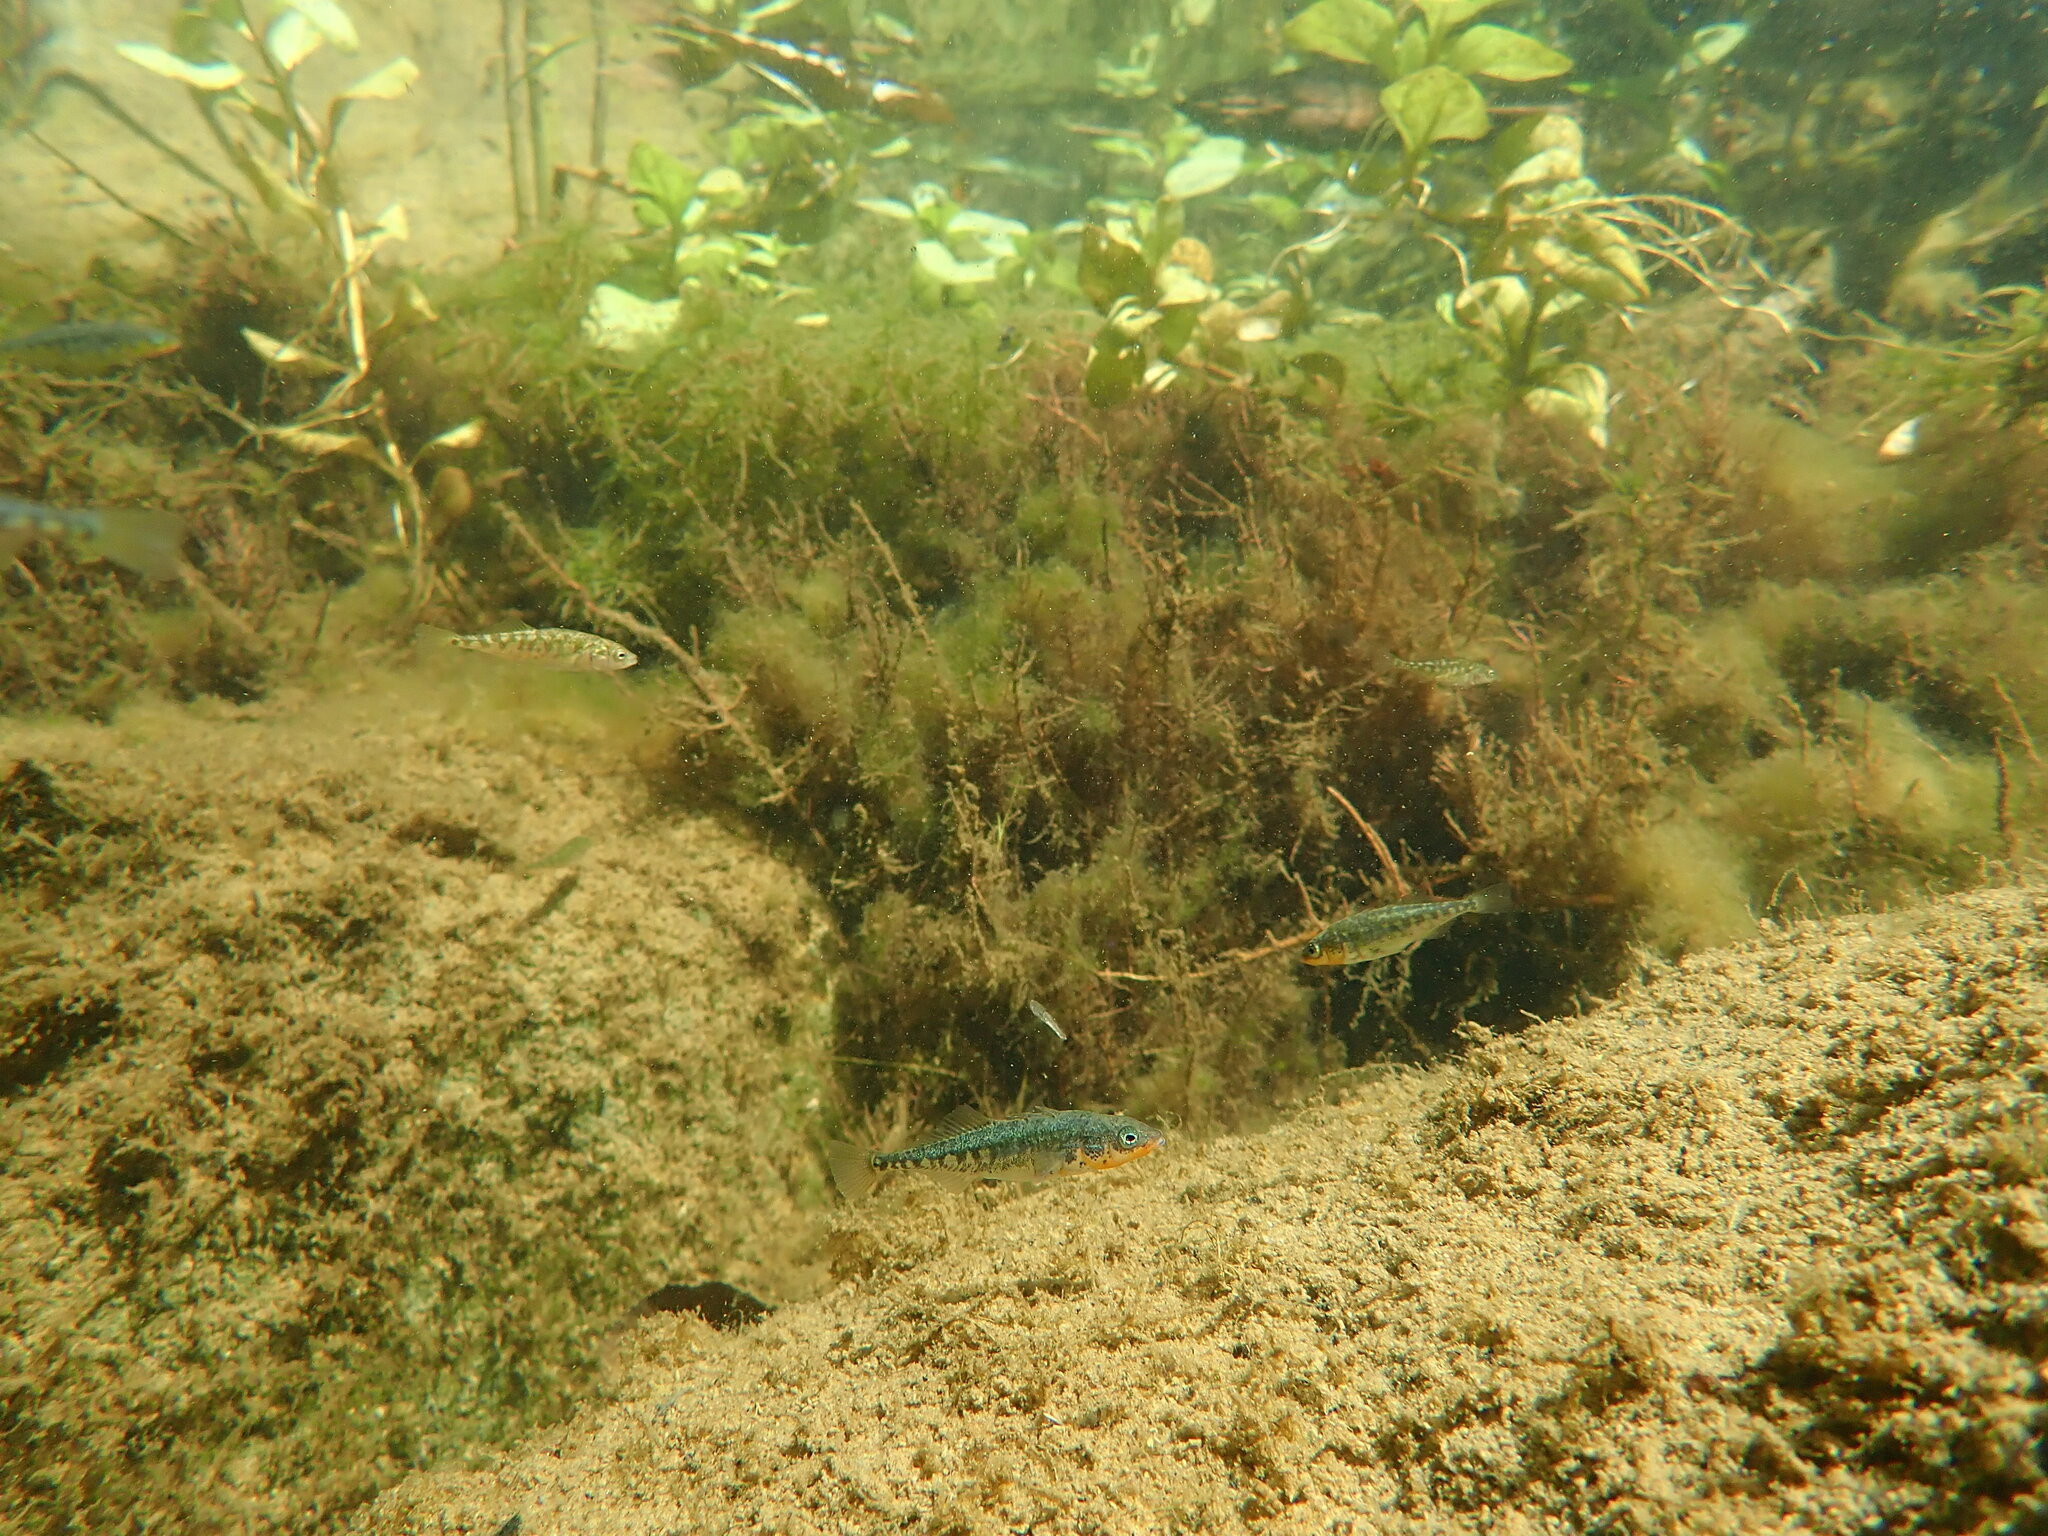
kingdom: Animalia
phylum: Chordata
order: Gasterosteiformes
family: Gasterosteidae
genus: Gasterosteus
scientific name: Gasterosteus aculeatus
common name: Three-spined stickleback
